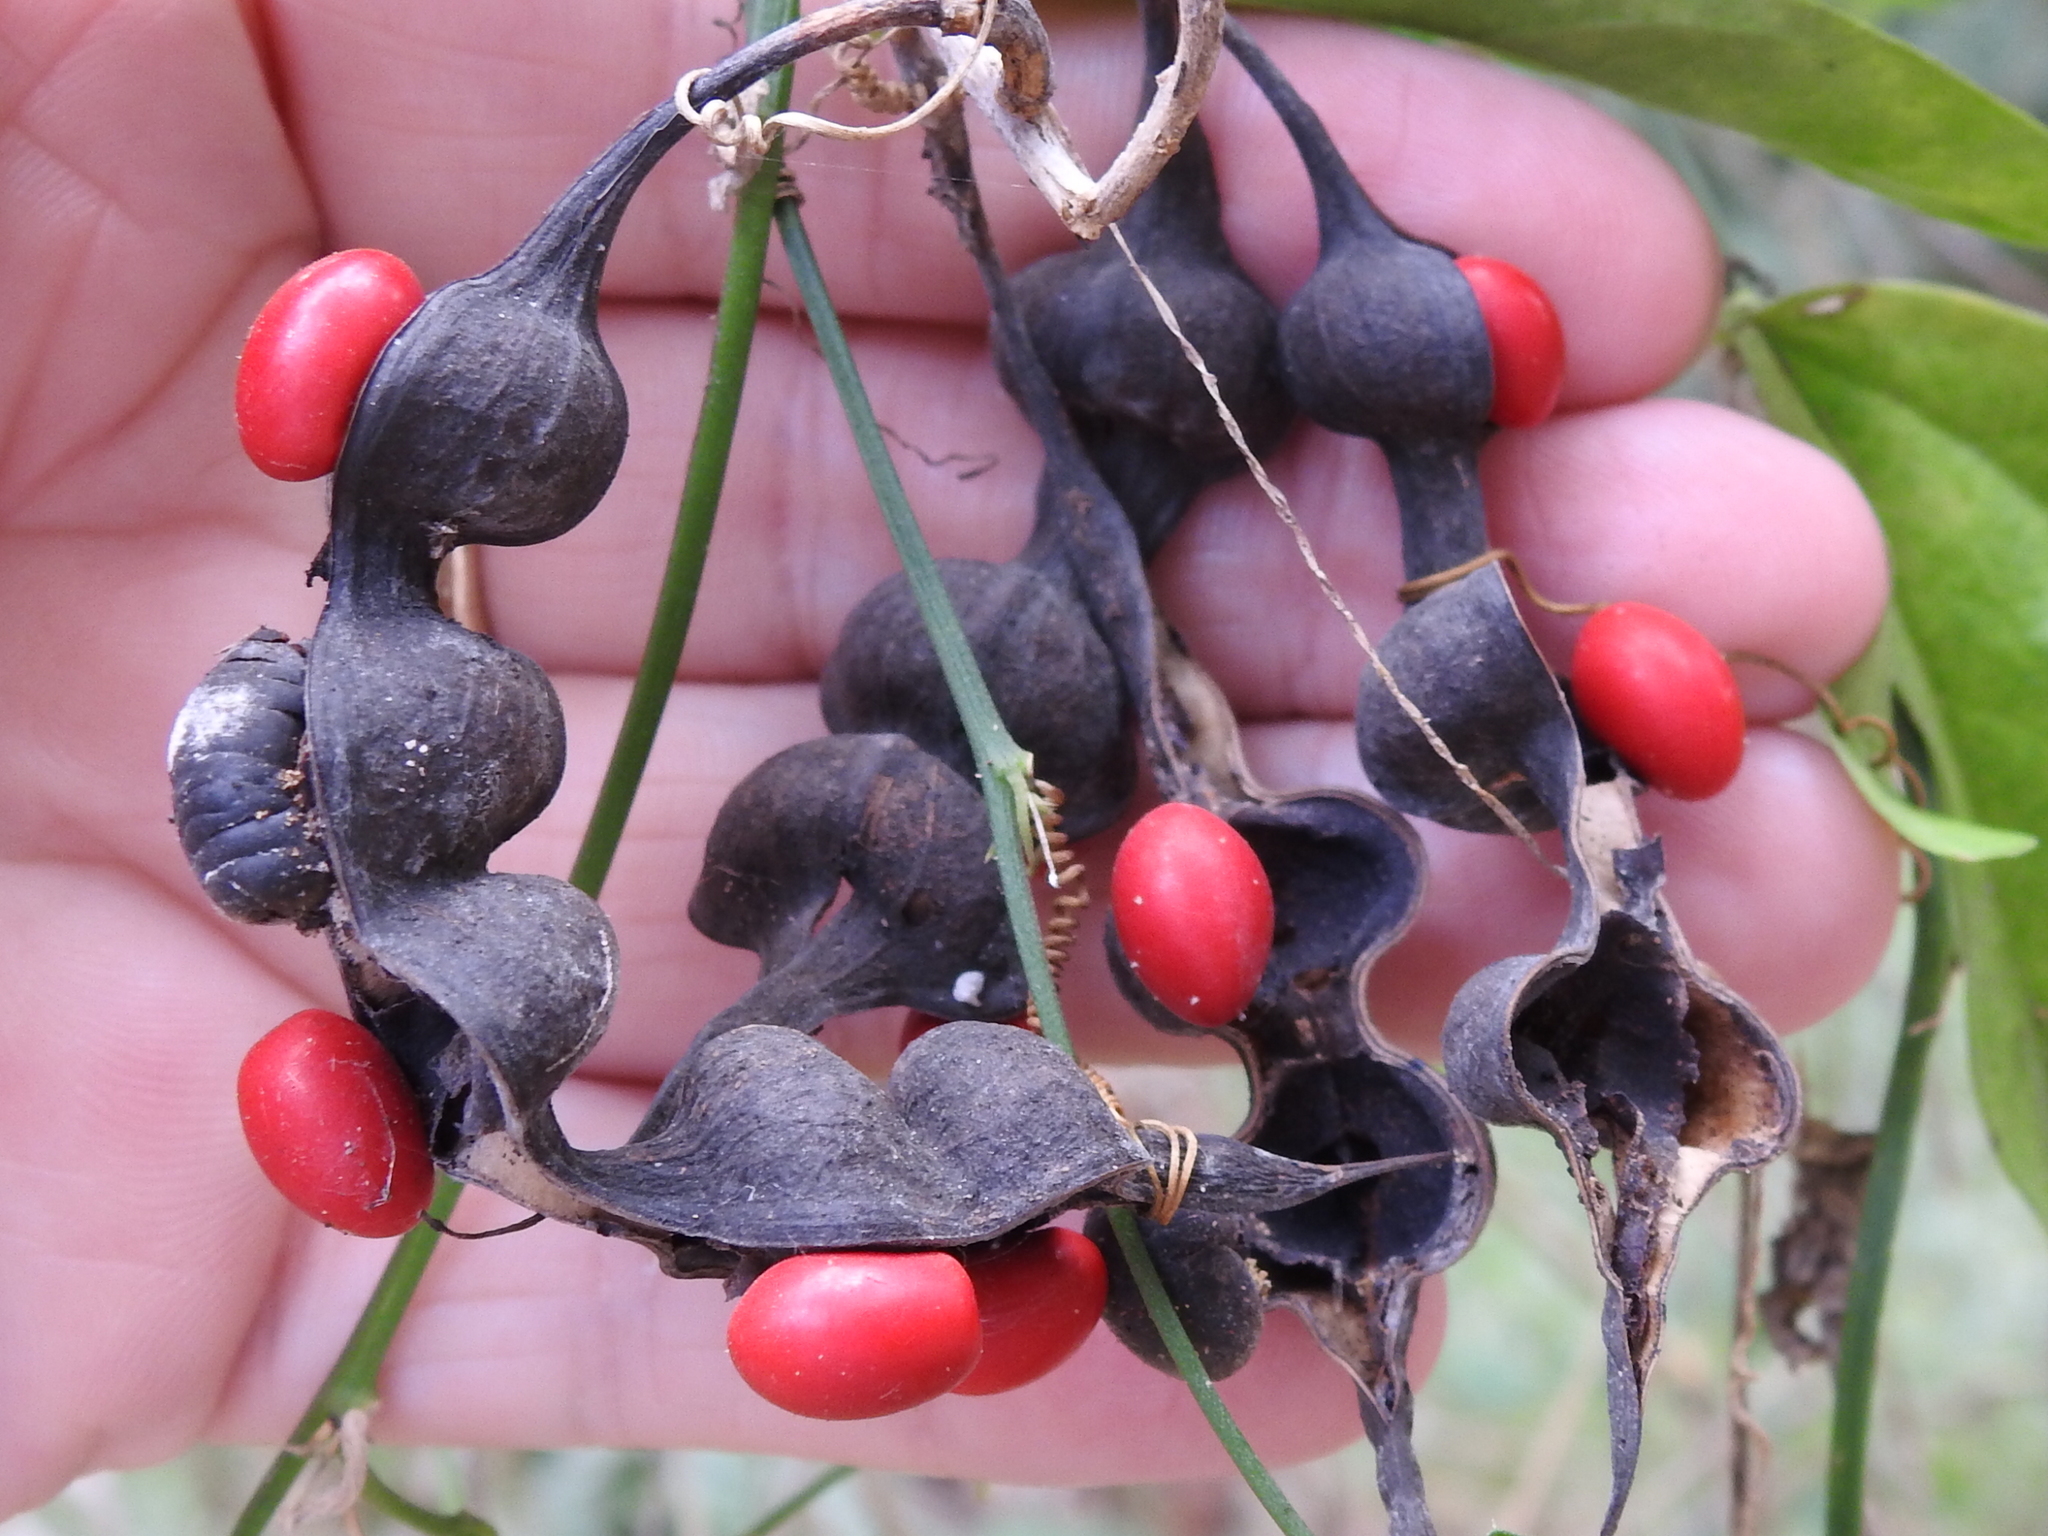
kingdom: Plantae
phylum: Tracheophyta
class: Magnoliopsida
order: Fabales
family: Fabaceae
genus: Erythrina
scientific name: Erythrina herbacea
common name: Coral-bean
